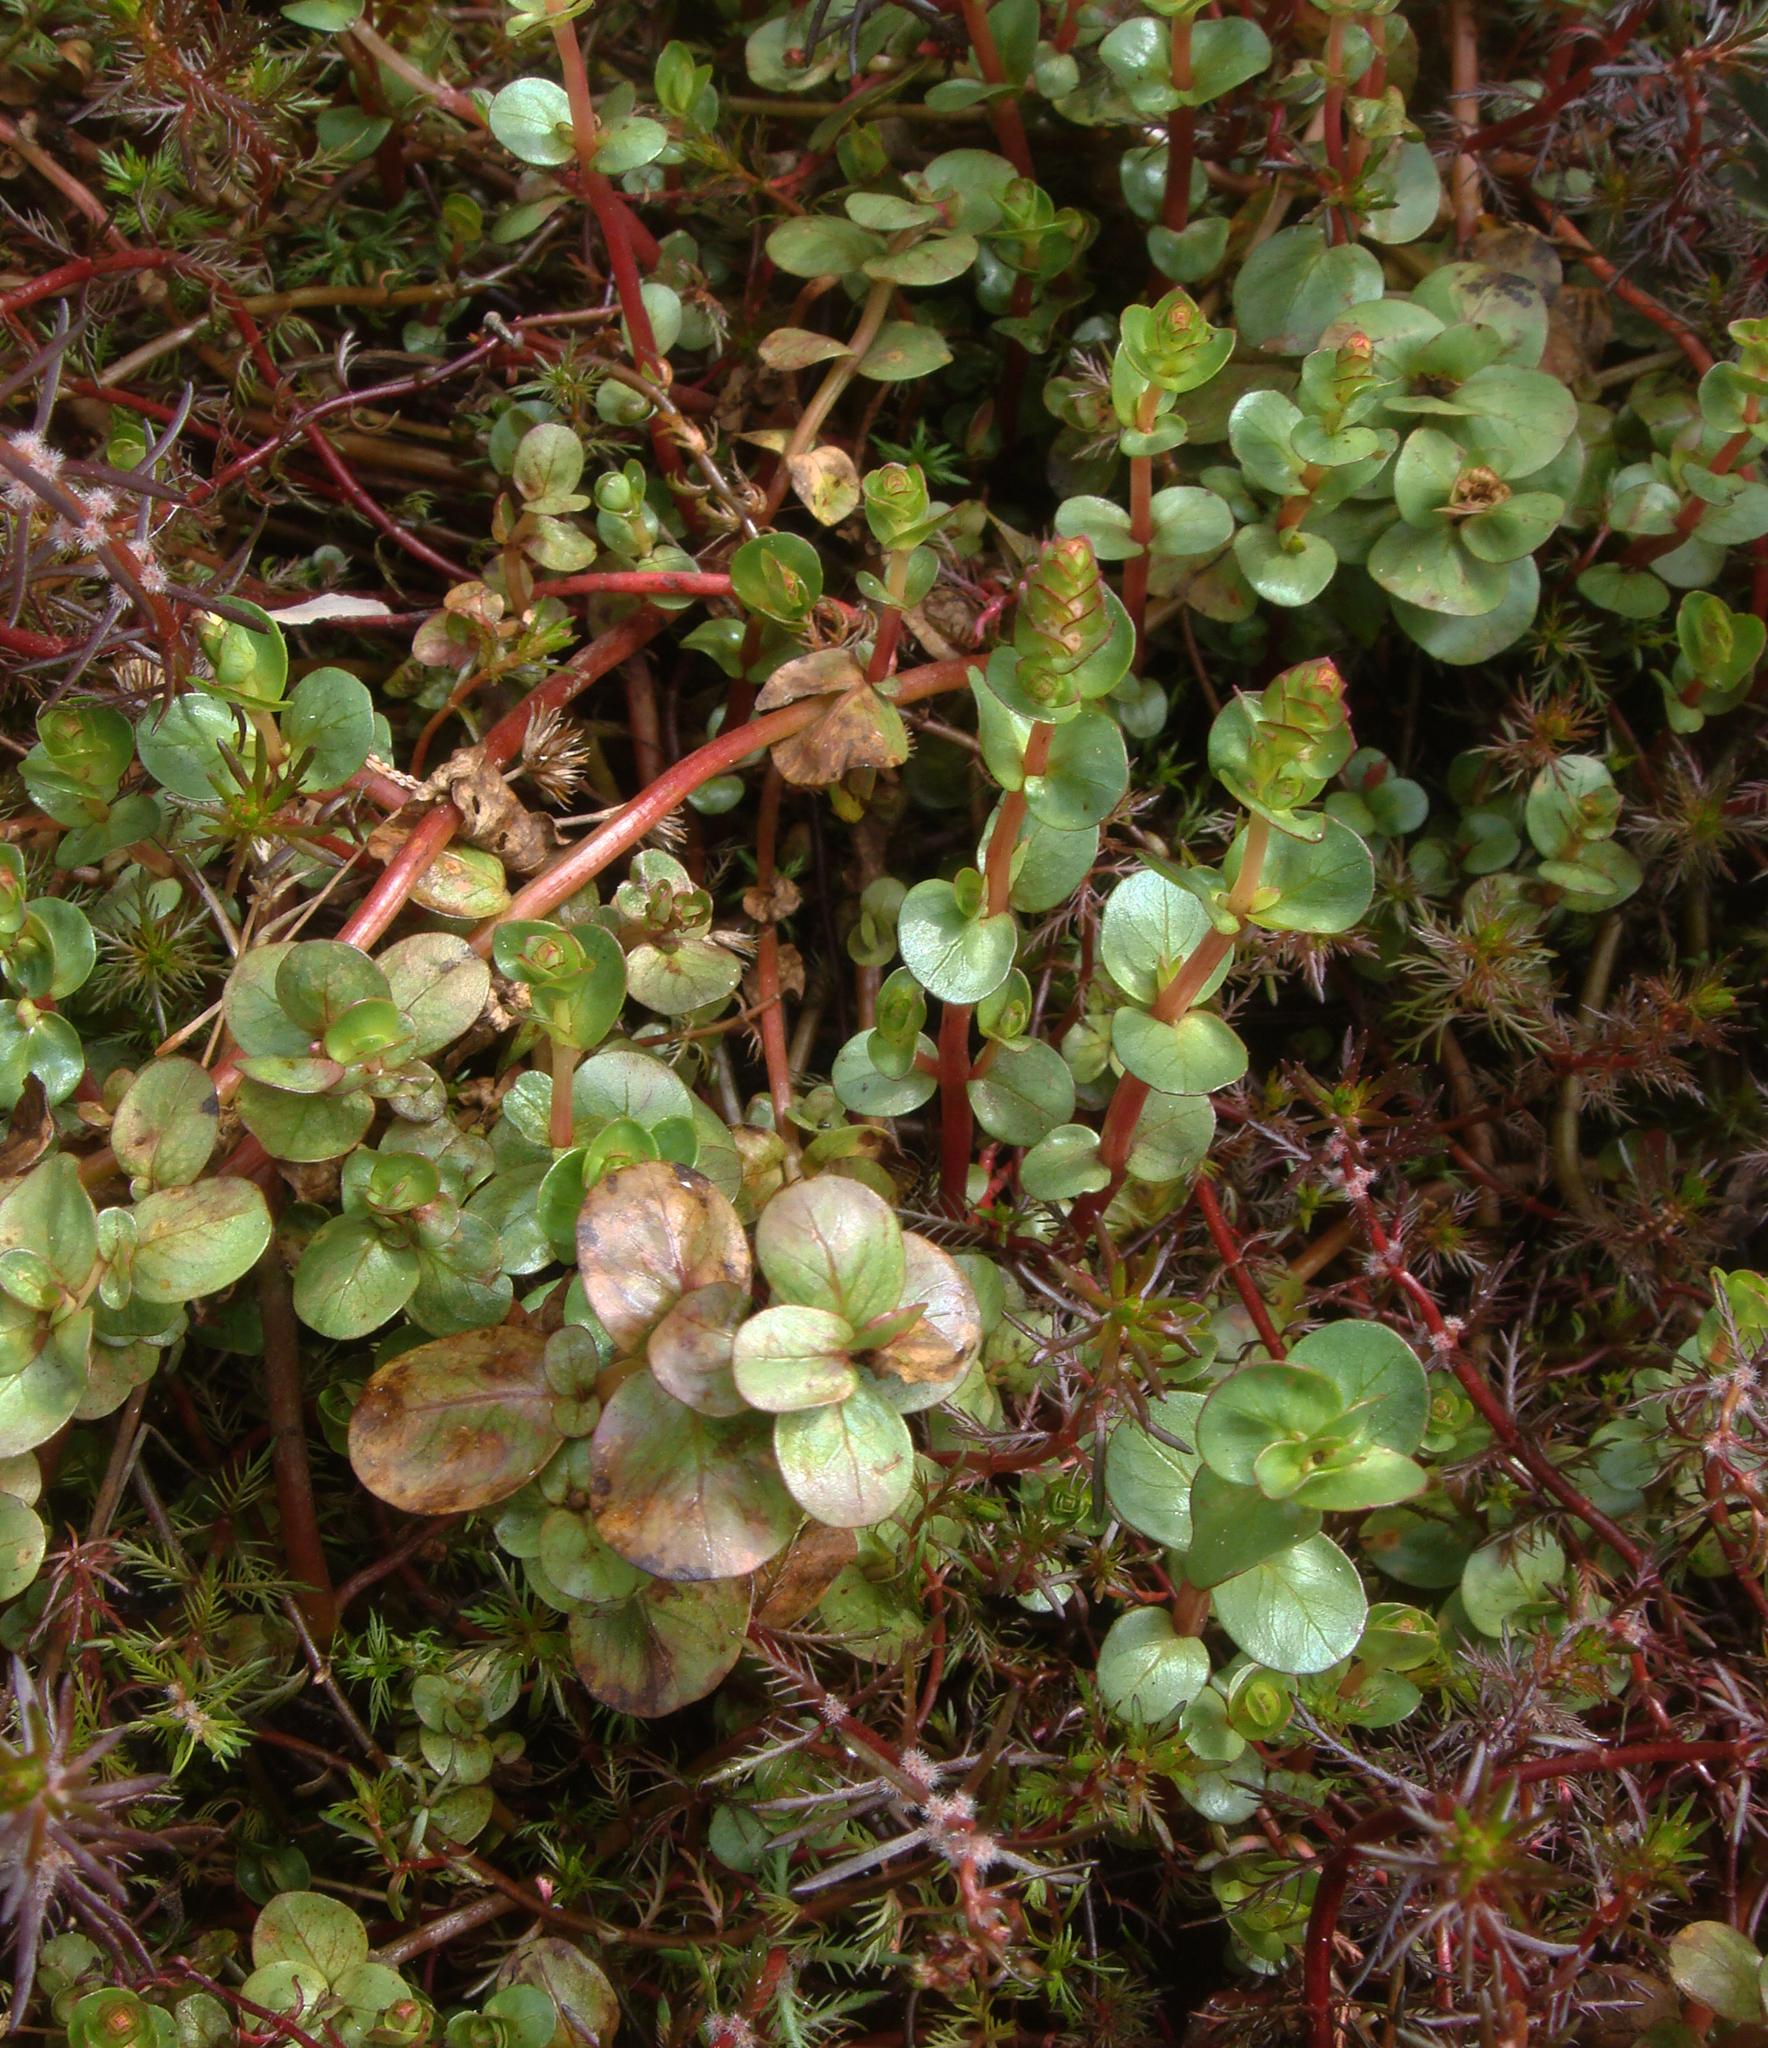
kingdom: Plantae
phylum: Tracheophyta
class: Magnoliopsida
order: Myrtales
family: Lythraceae
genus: Rotala
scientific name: Rotala rotundifolia
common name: Roundleaf toothcup
